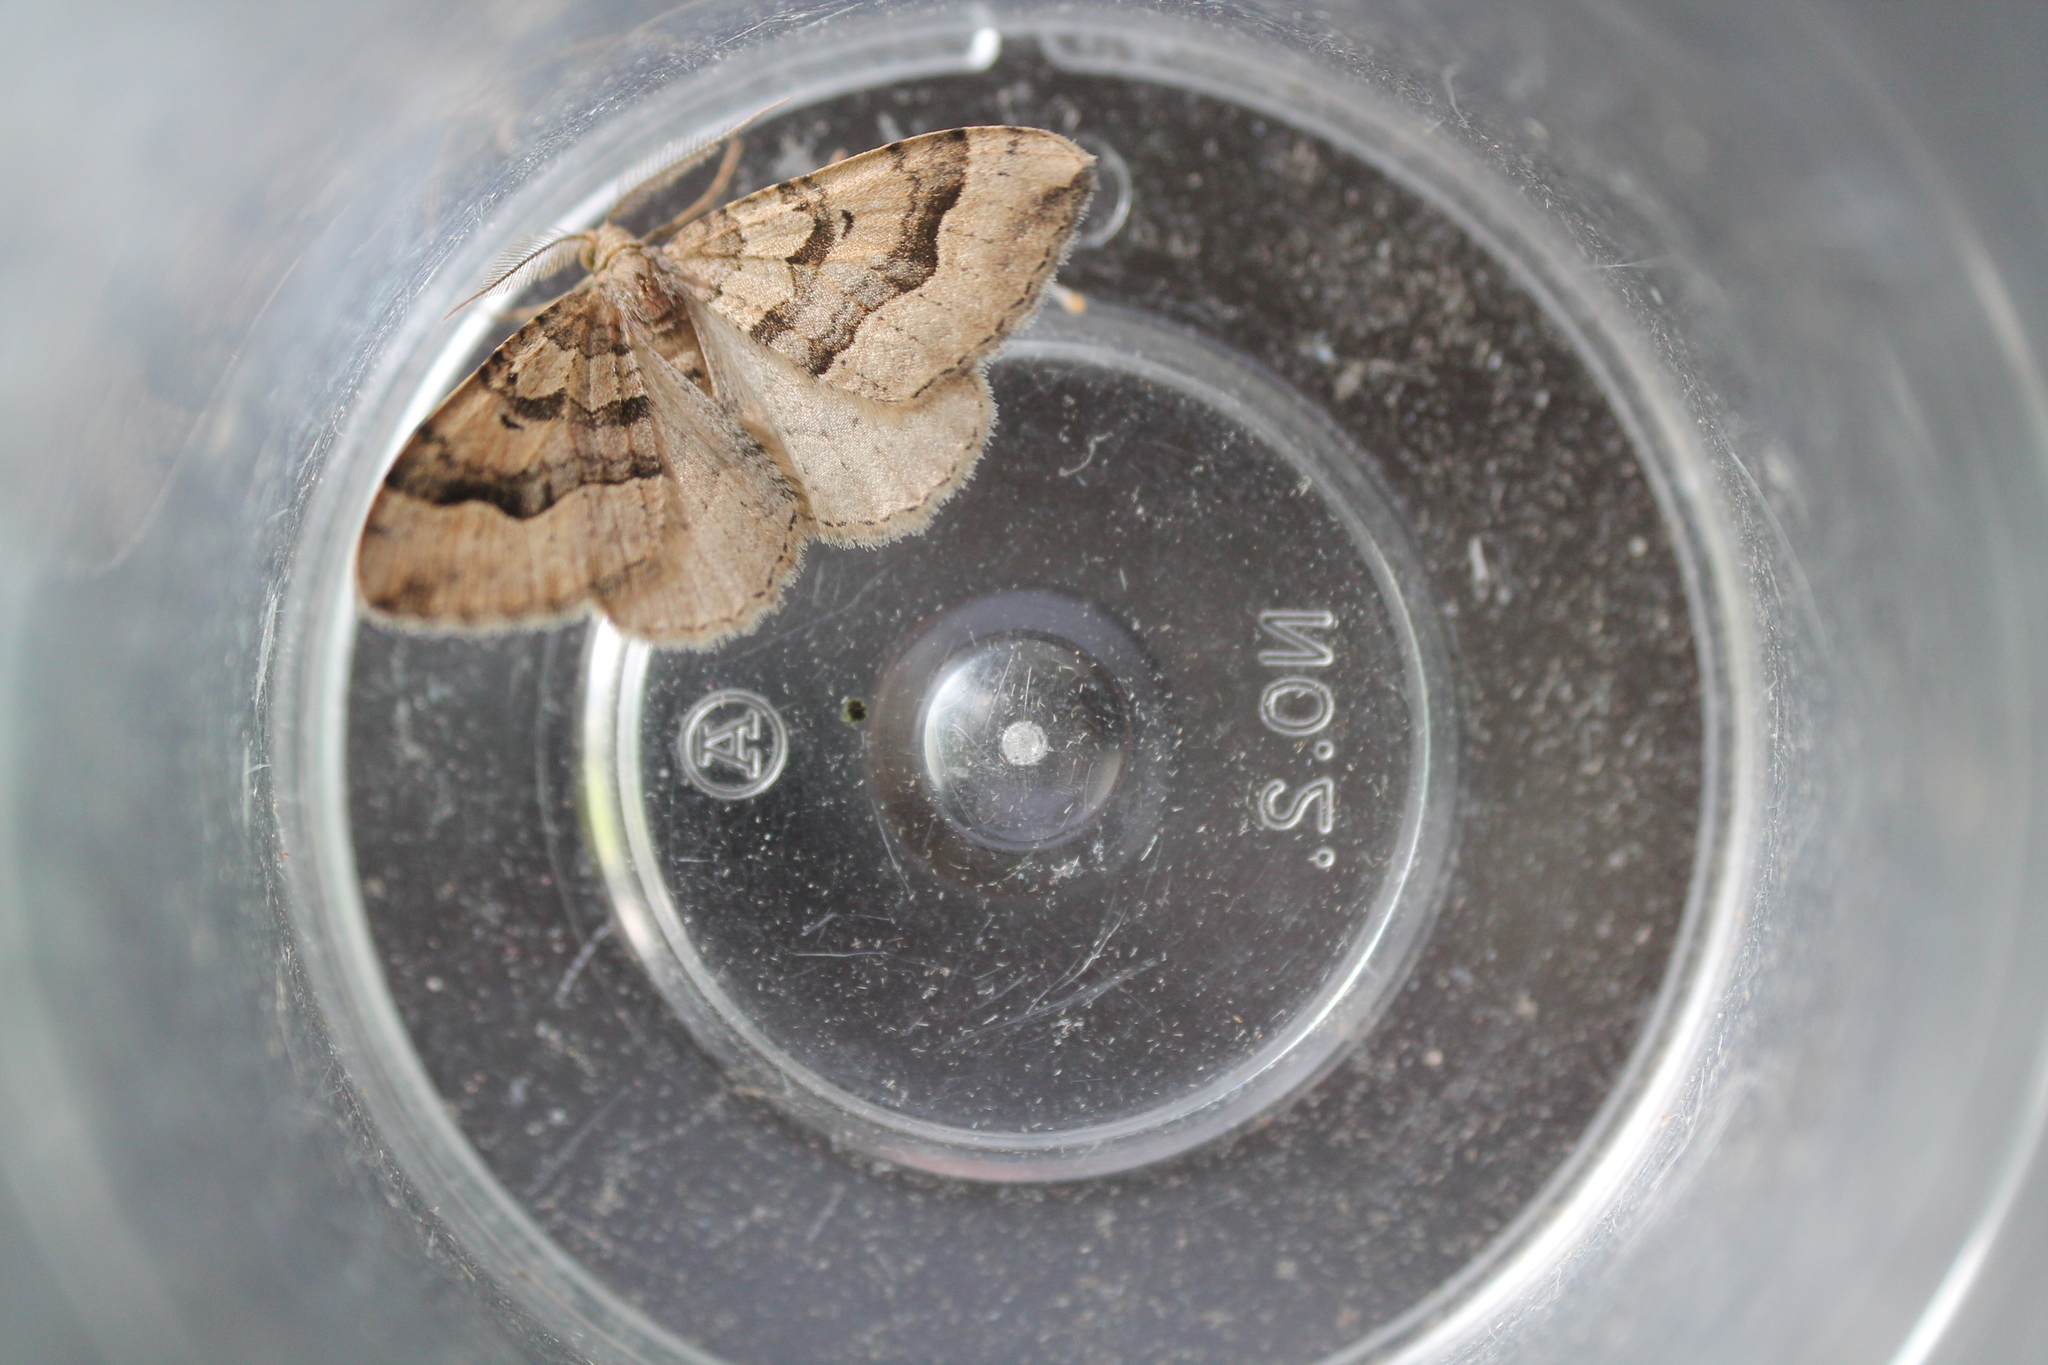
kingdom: Animalia
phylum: Arthropoda
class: Insecta
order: Lepidoptera
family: Geometridae
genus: Epyaxa
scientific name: Epyaxa rosearia
